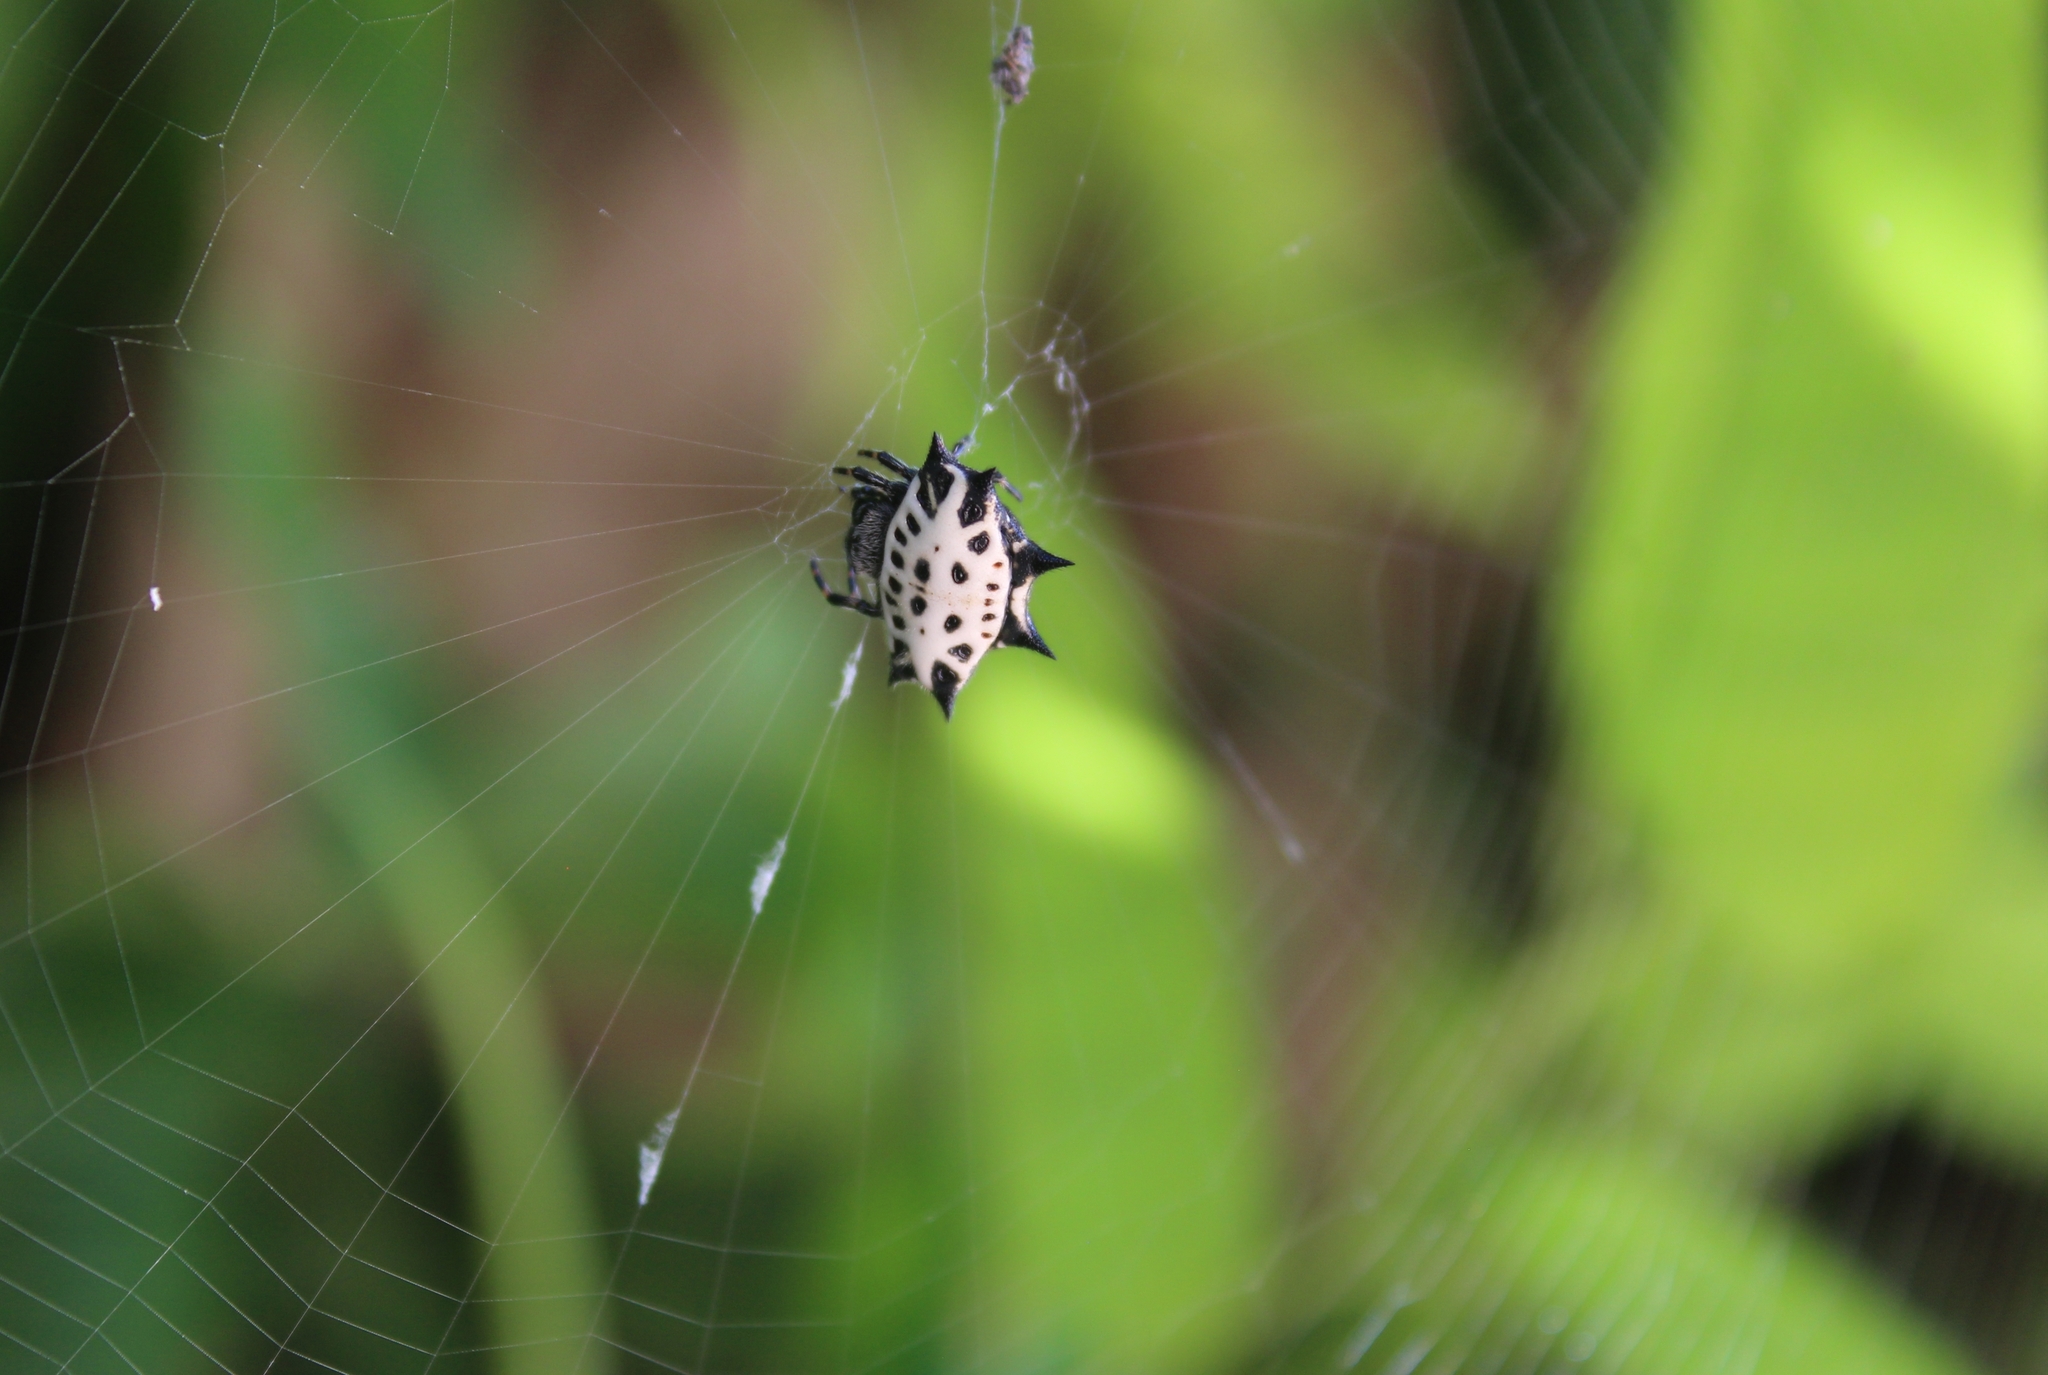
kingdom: Animalia
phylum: Arthropoda
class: Arachnida
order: Araneae
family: Araneidae
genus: Gasteracantha
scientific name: Gasteracantha cancriformis
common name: Orb weavers
